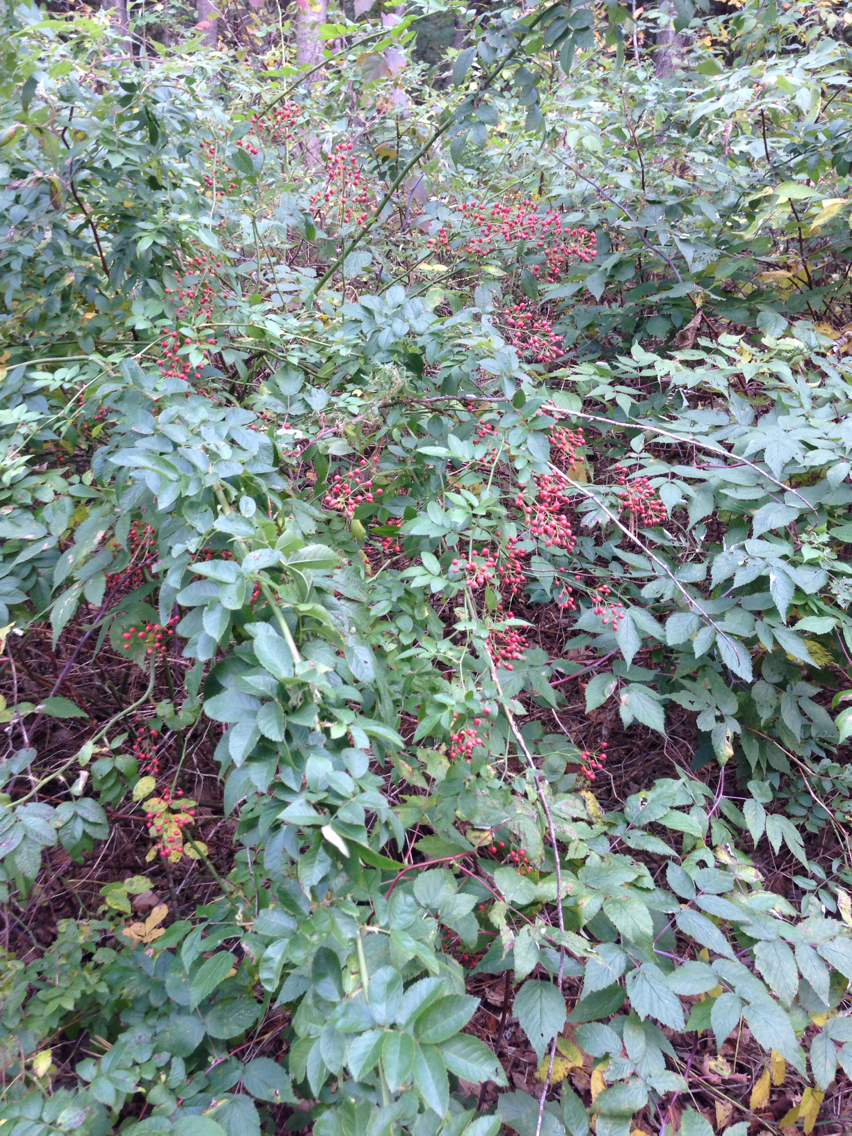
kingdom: Plantae
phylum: Tracheophyta
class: Magnoliopsida
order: Rosales
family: Rosaceae
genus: Rosa
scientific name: Rosa multiflora
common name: Multiflora rose
